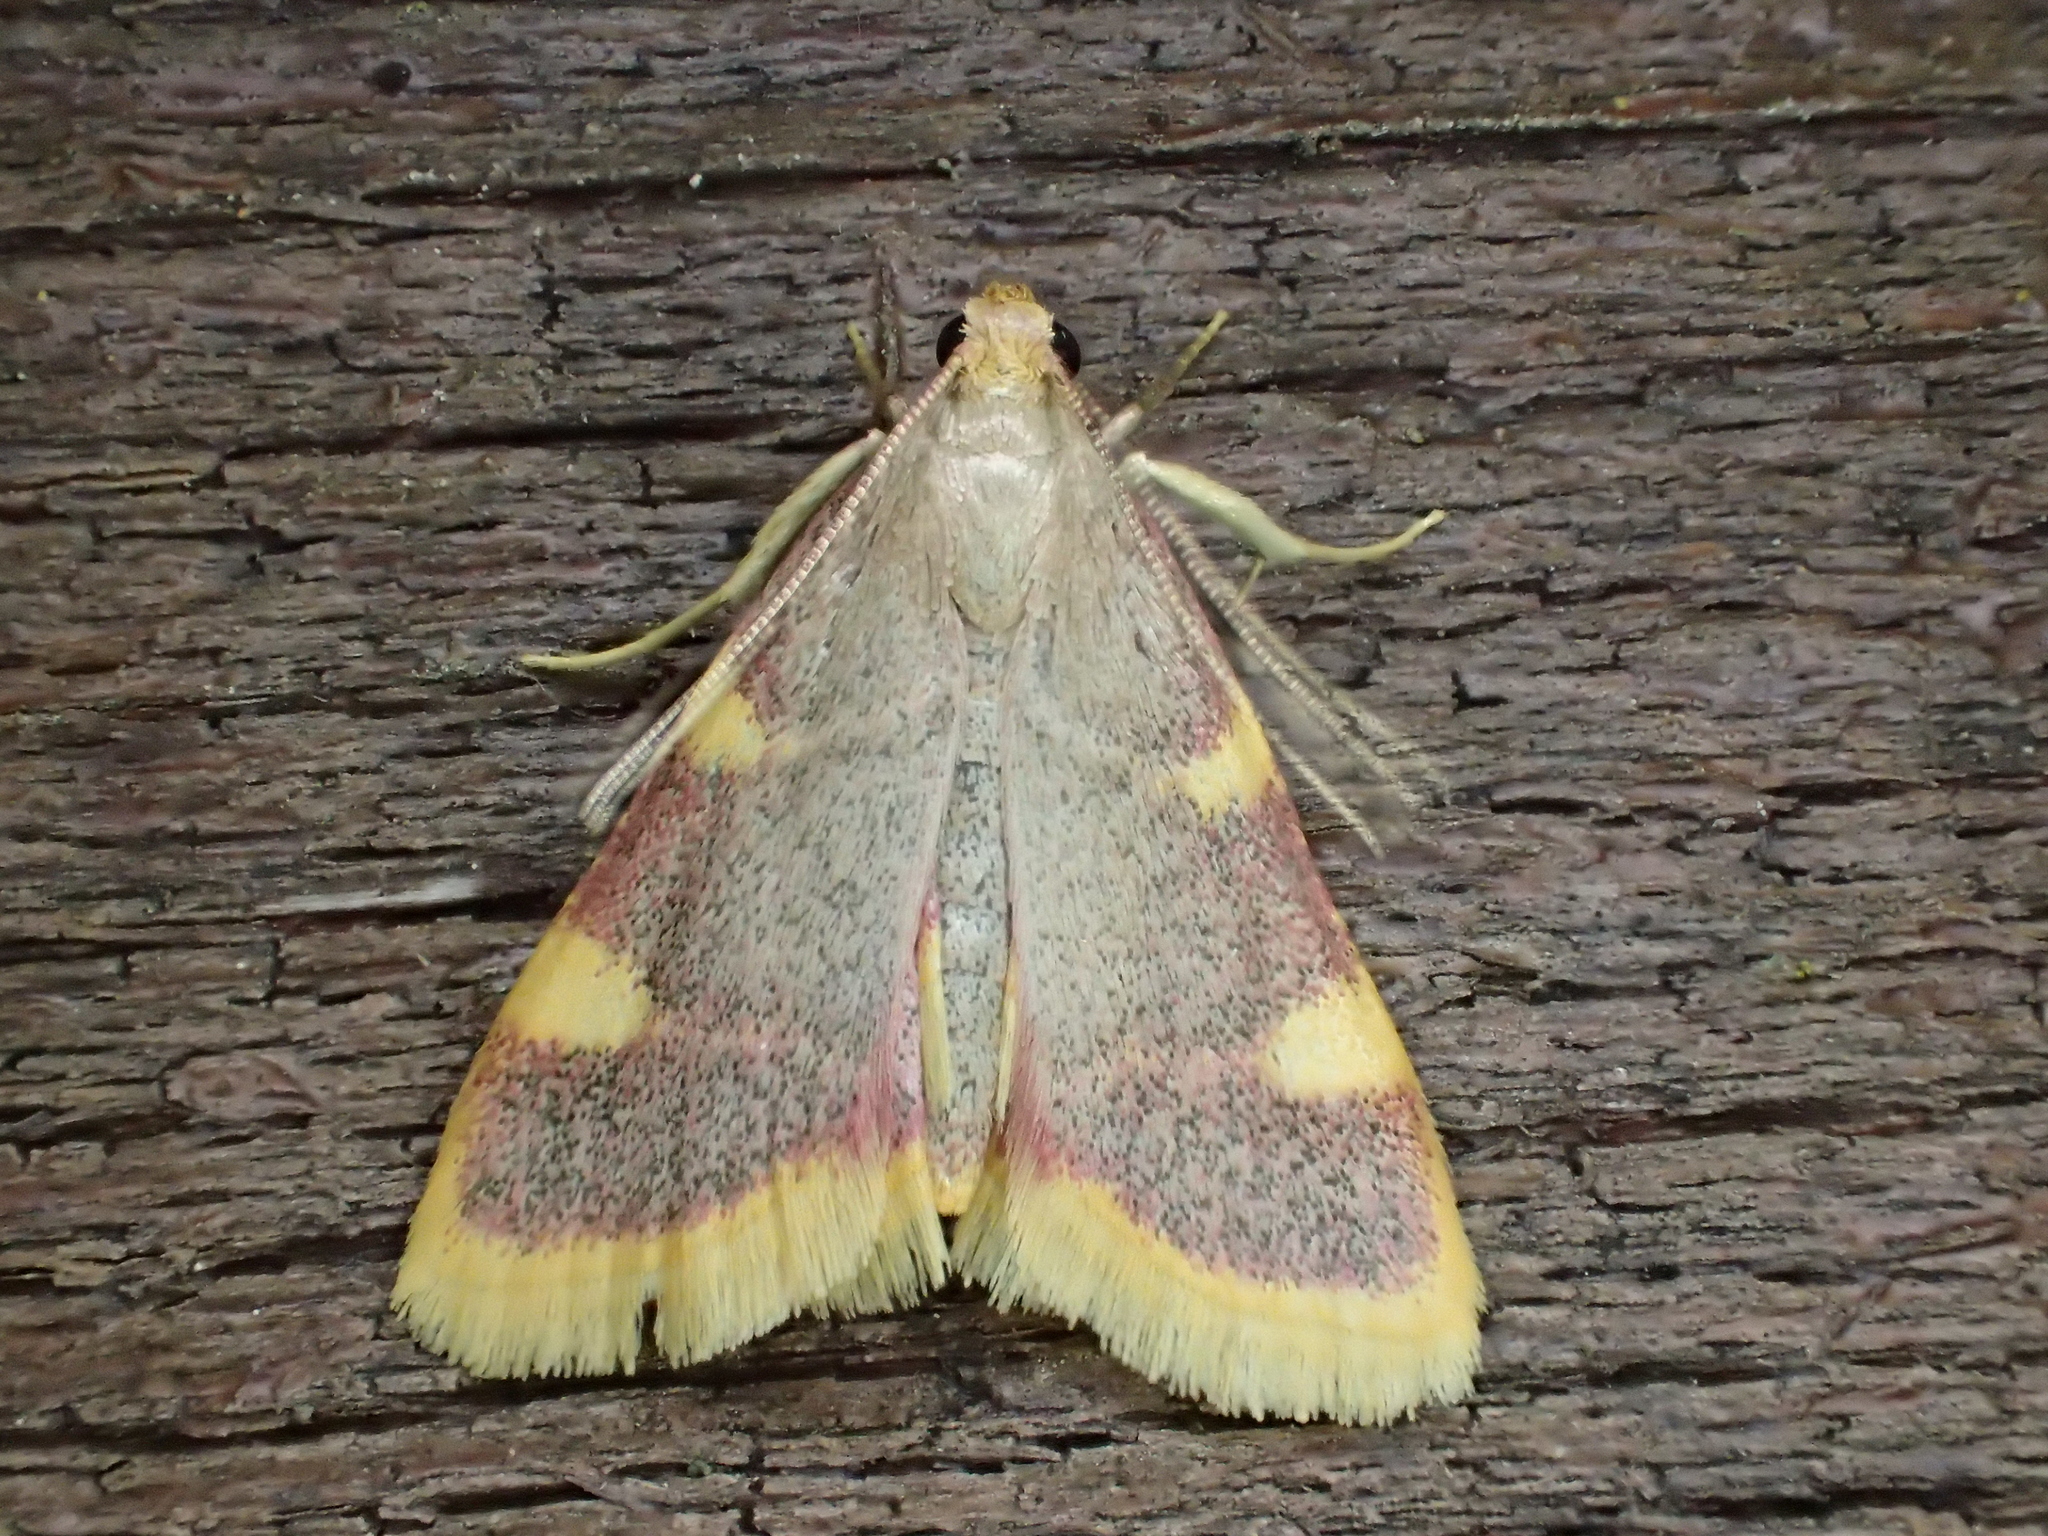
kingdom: Animalia
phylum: Arthropoda
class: Insecta
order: Lepidoptera
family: Pyralidae
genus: Hypsopygia
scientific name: Hypsopygia costalis
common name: Gold triangle
